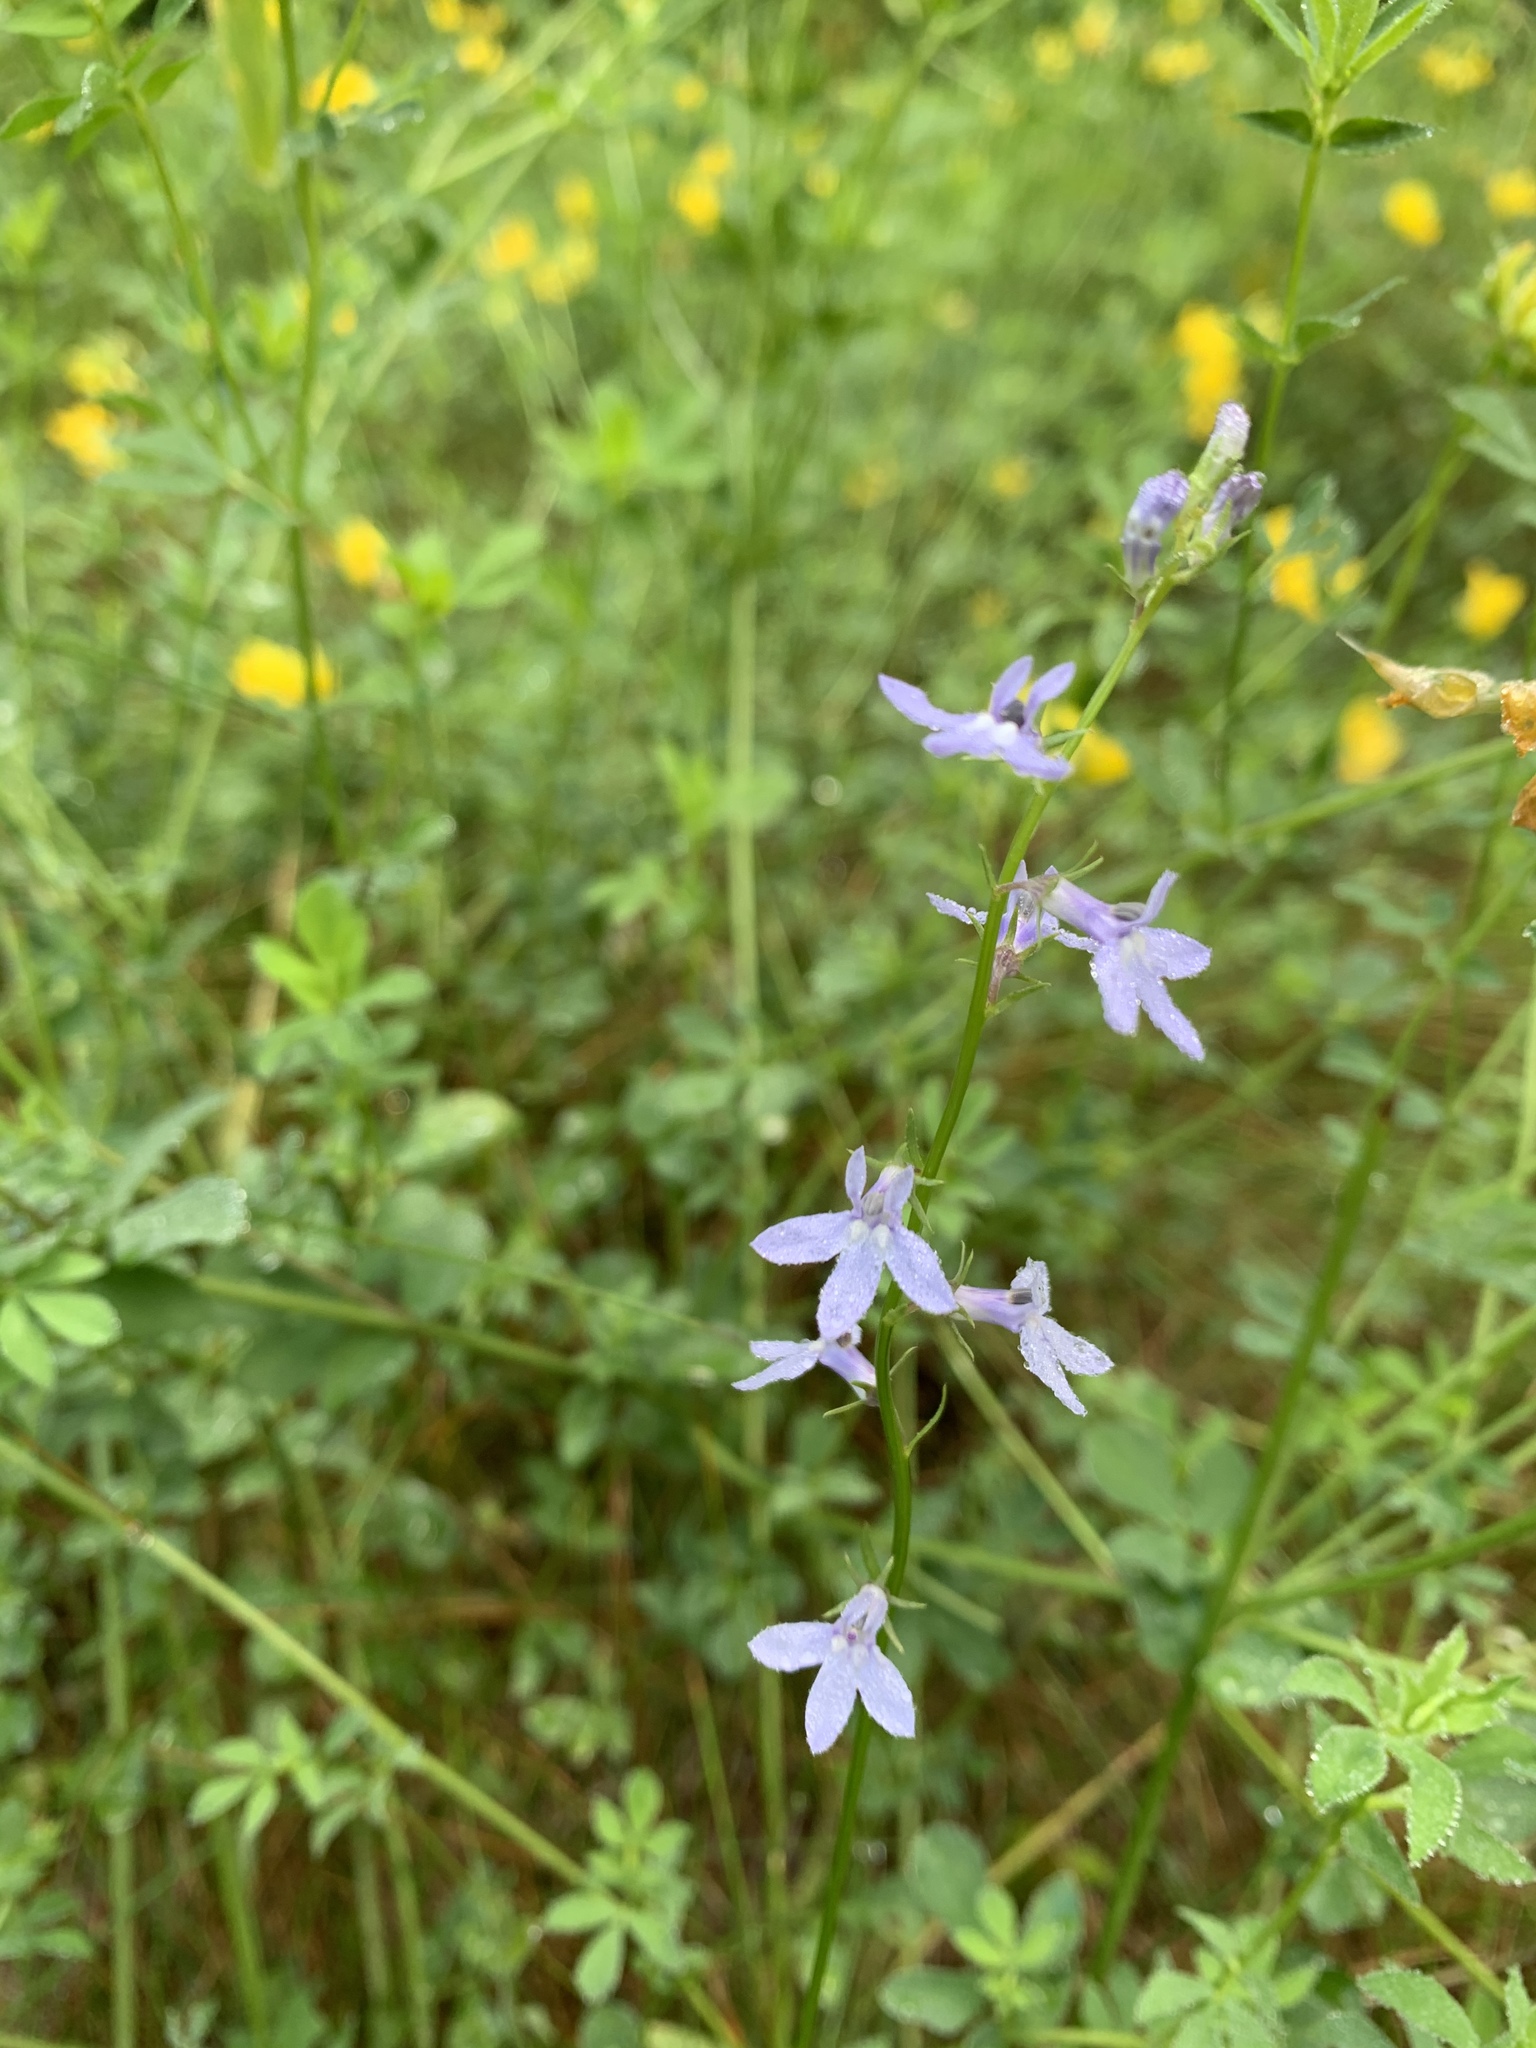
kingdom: Plantae
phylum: Tracheophyta
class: Magnoliopsida
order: Asterales
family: Campanulaceae
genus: Lobelia
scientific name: Lobelia spicata
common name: Pale-spike lobelia
